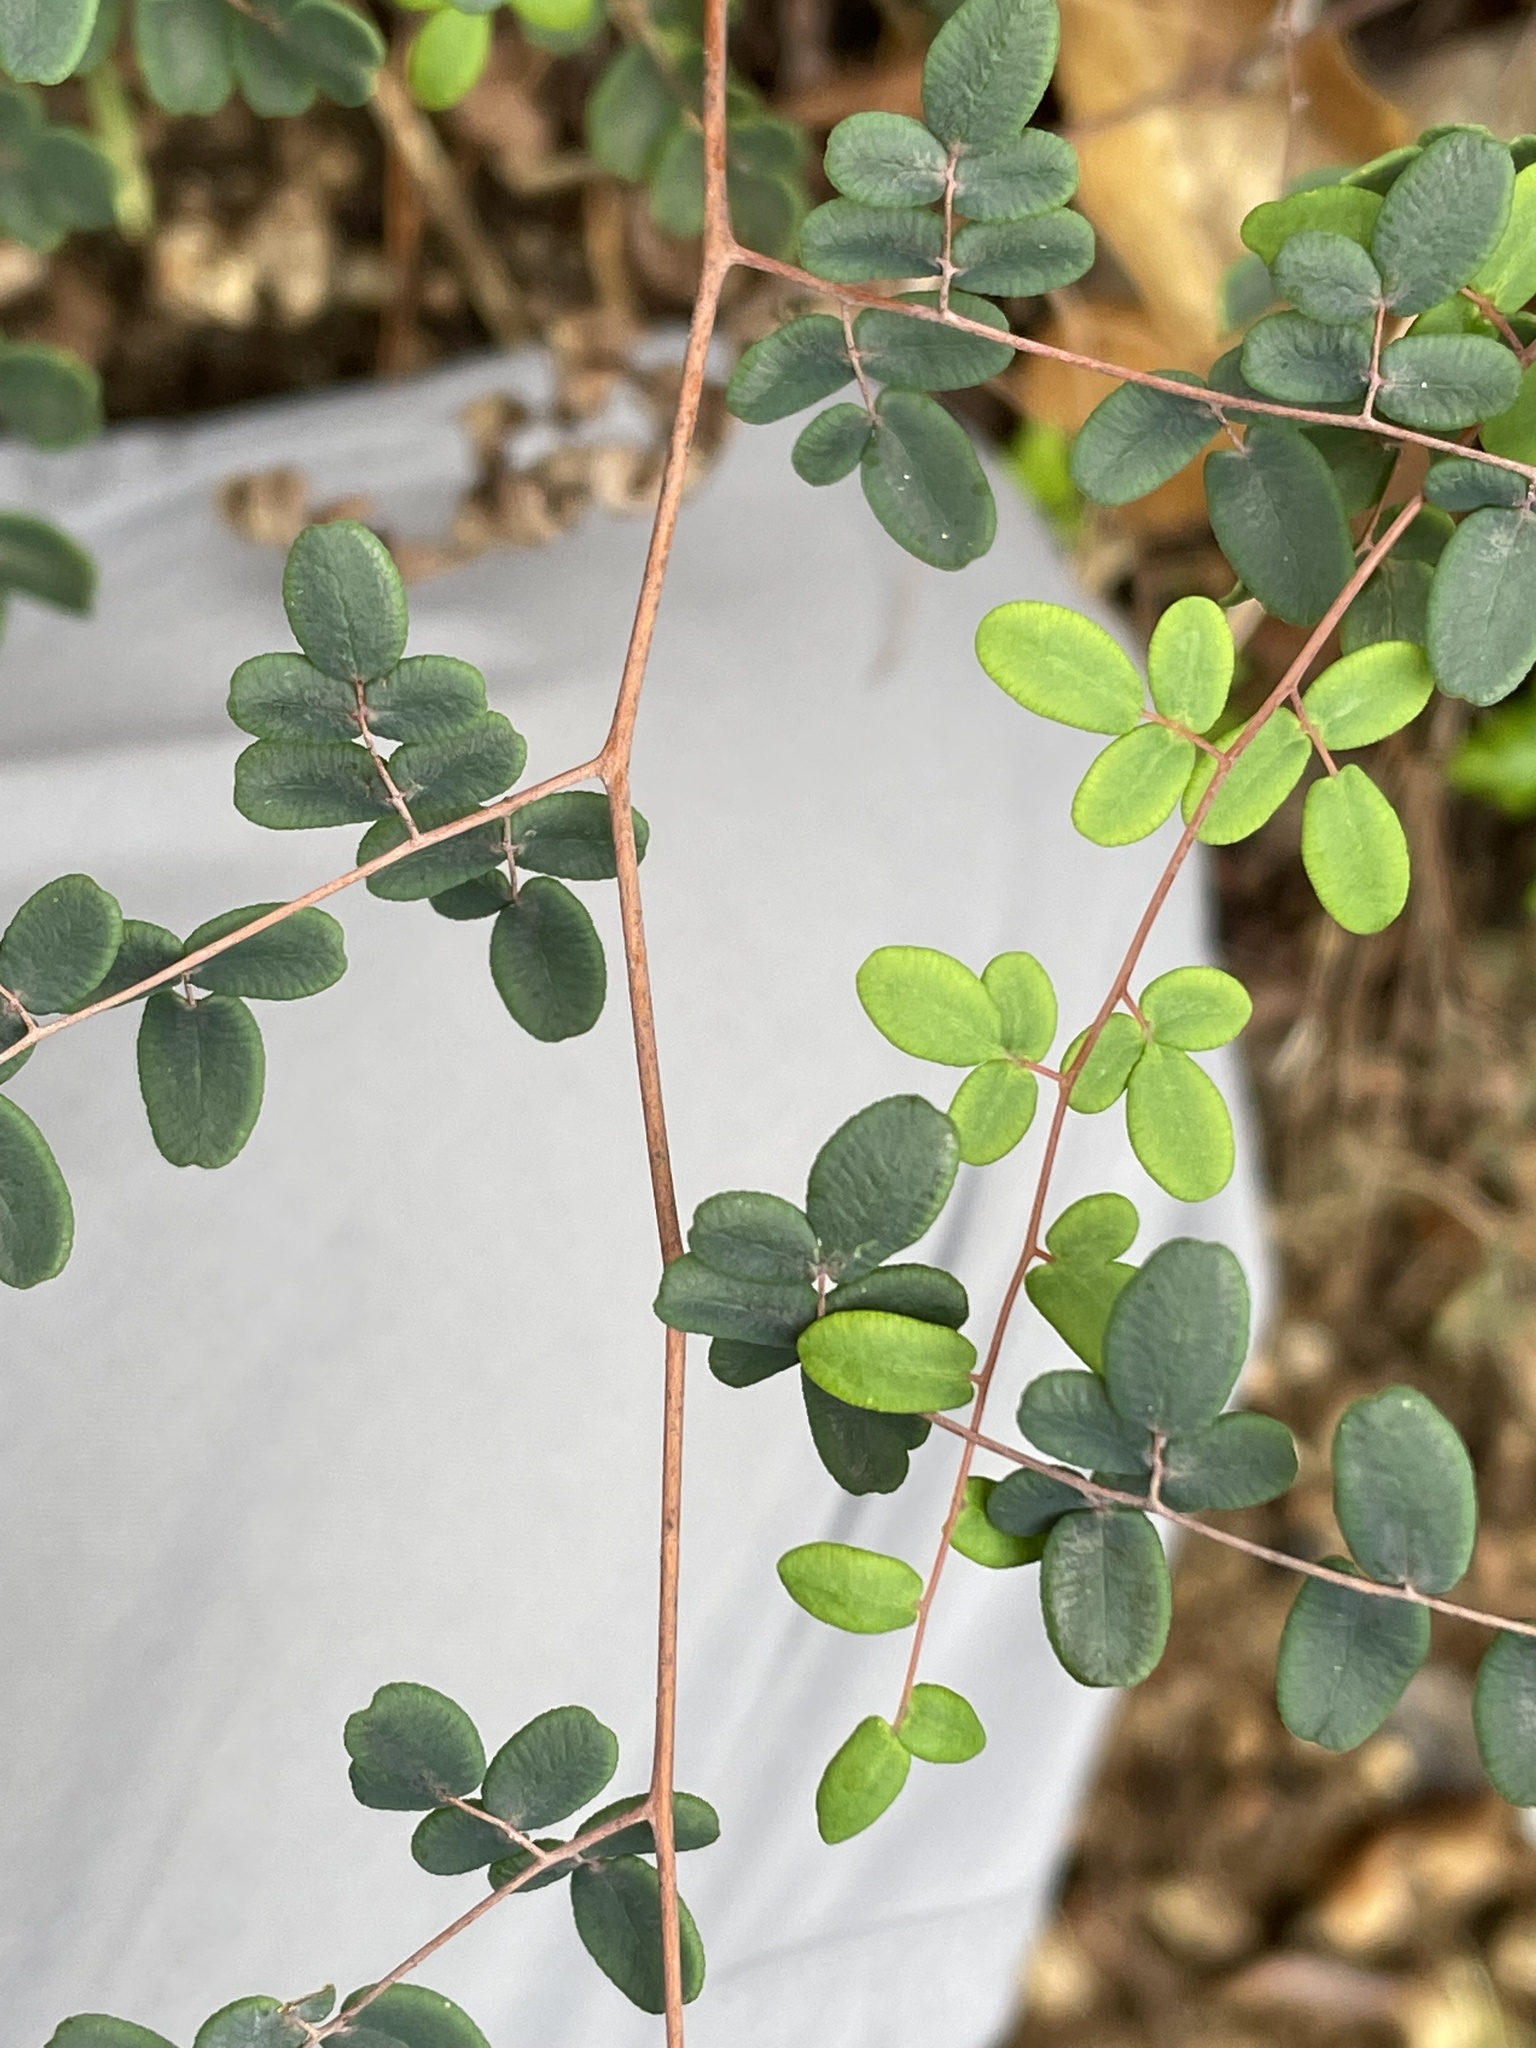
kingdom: Plantae
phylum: Tracheophyta
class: Polypodiopsida
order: Polypodiales
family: Pteridaceae
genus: Pellaea
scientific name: Pellaea andromedifolia
